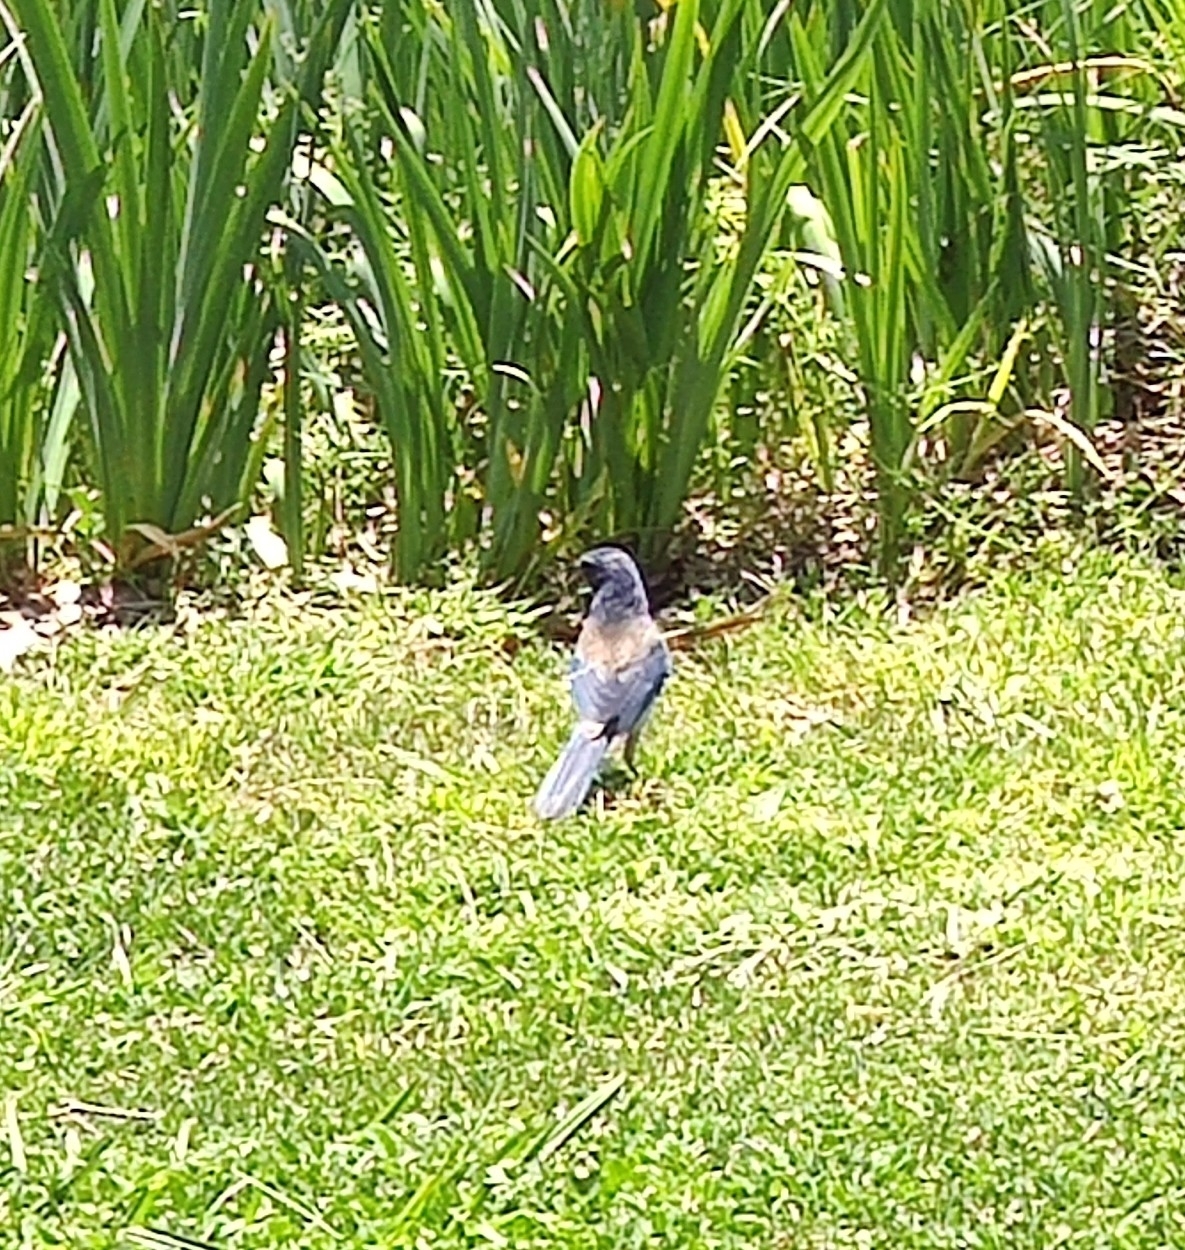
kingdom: Animalia
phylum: Chordata
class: Aves
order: Passeriformes
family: Corvidae
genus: Aphelocoma
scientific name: Aphelocoma californica
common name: California scrub-jay
